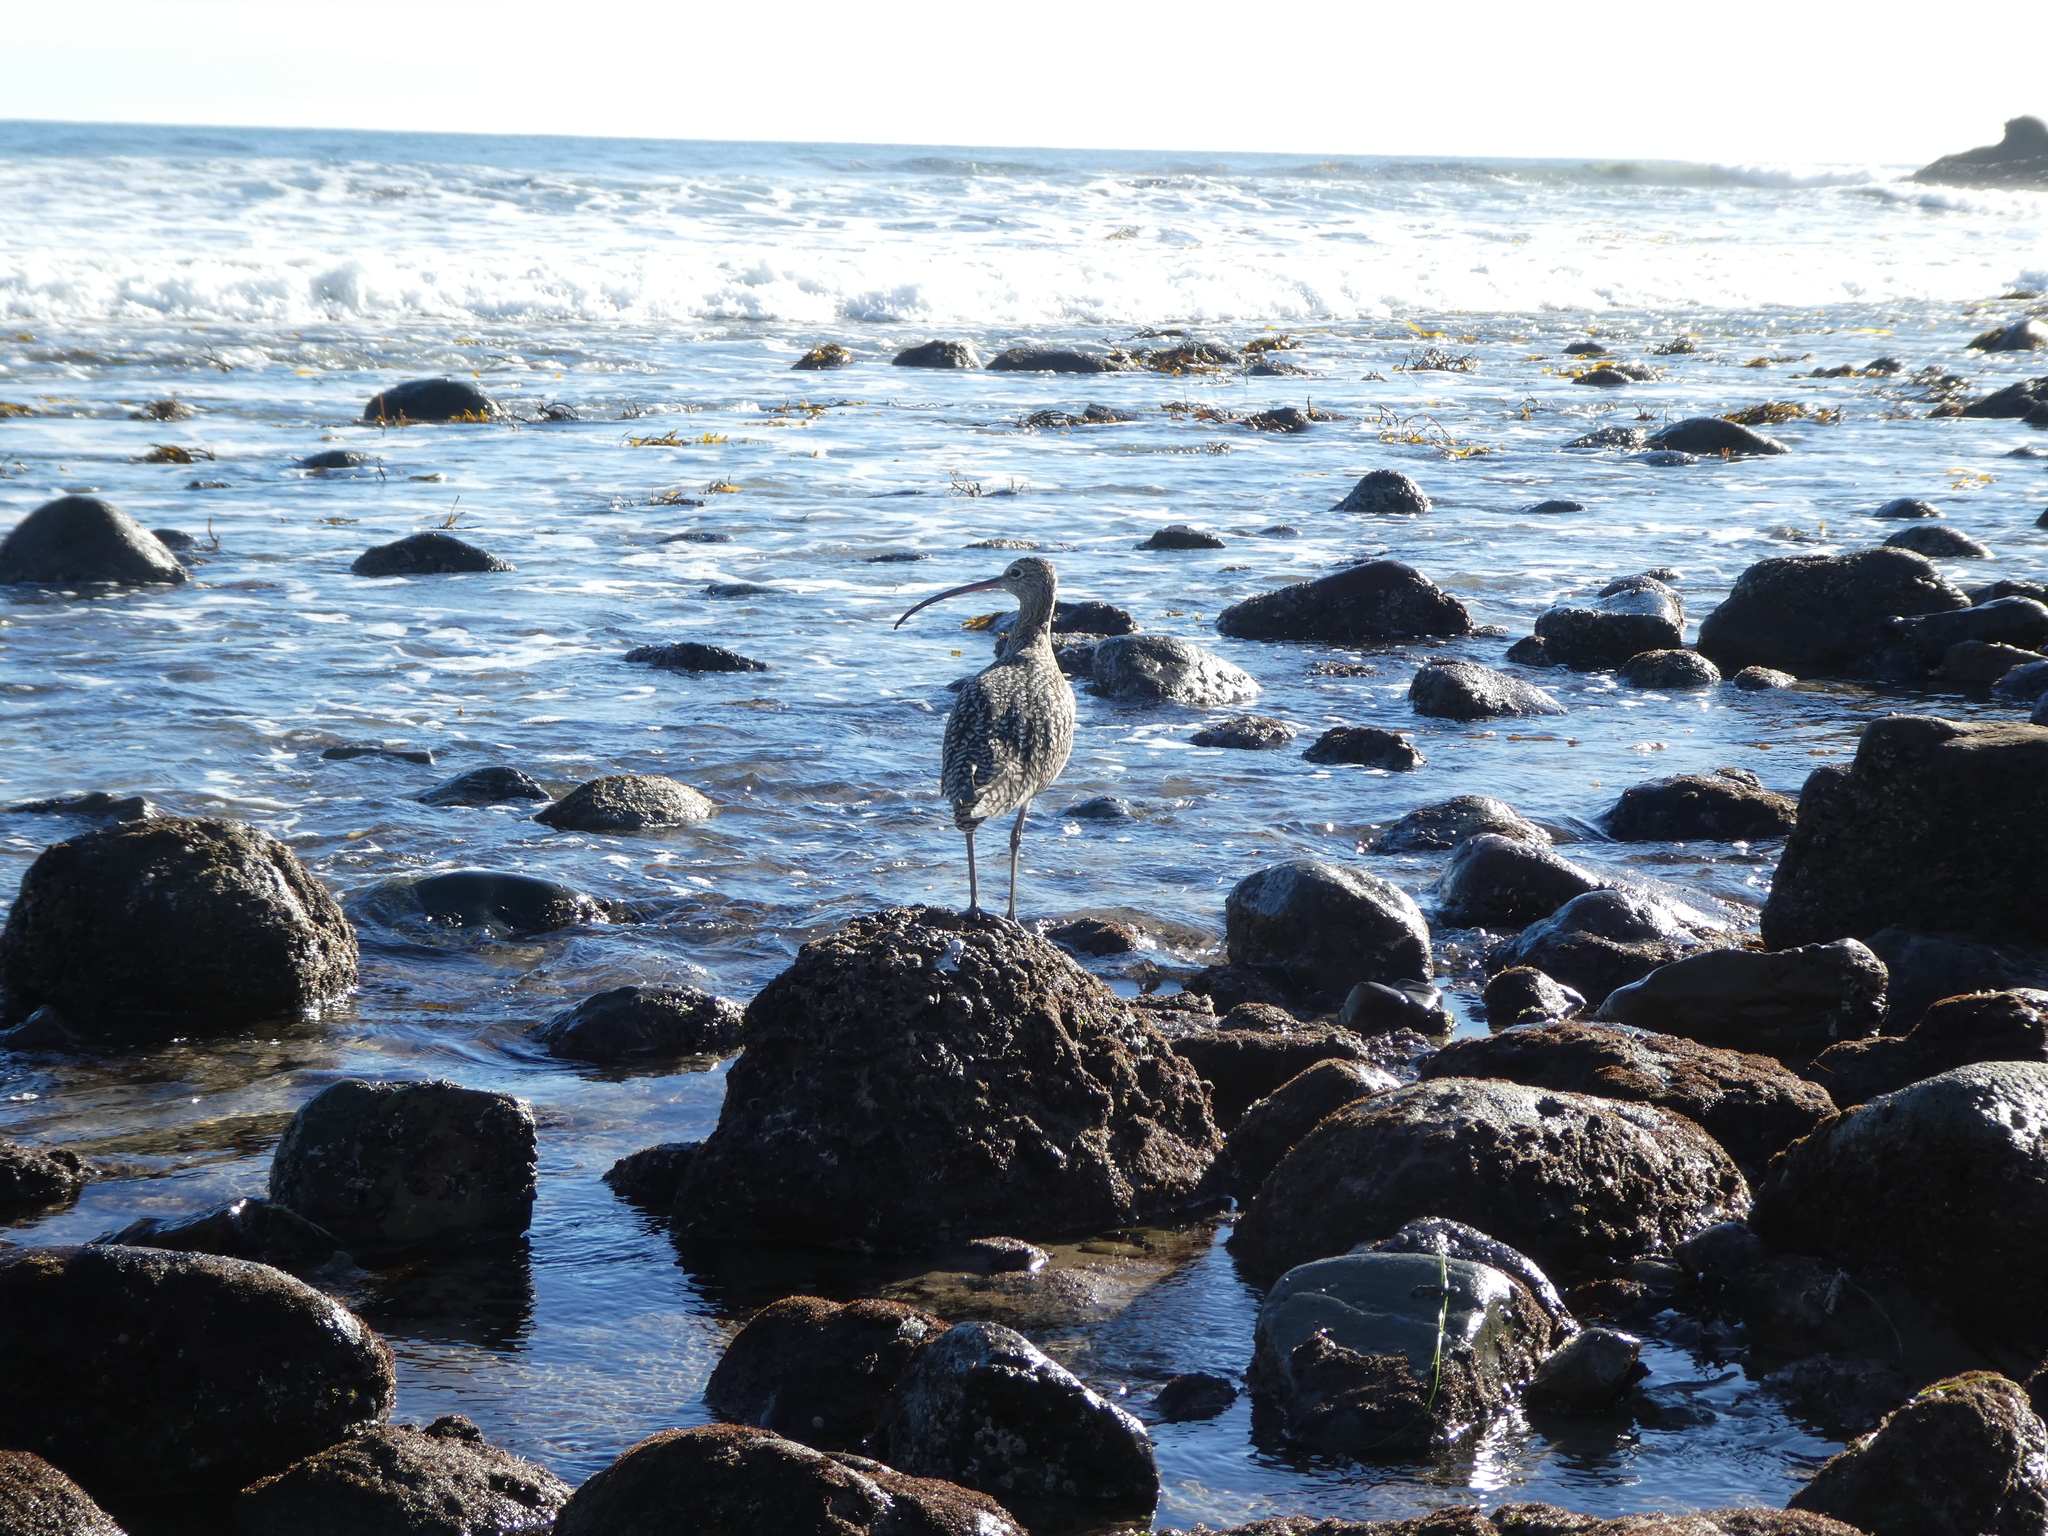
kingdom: Animalia
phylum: Chordata
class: Aves
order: Charadriiformes
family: Scolopacidae
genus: Numenius
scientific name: Numenius americanus
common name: Long-billed curlew
